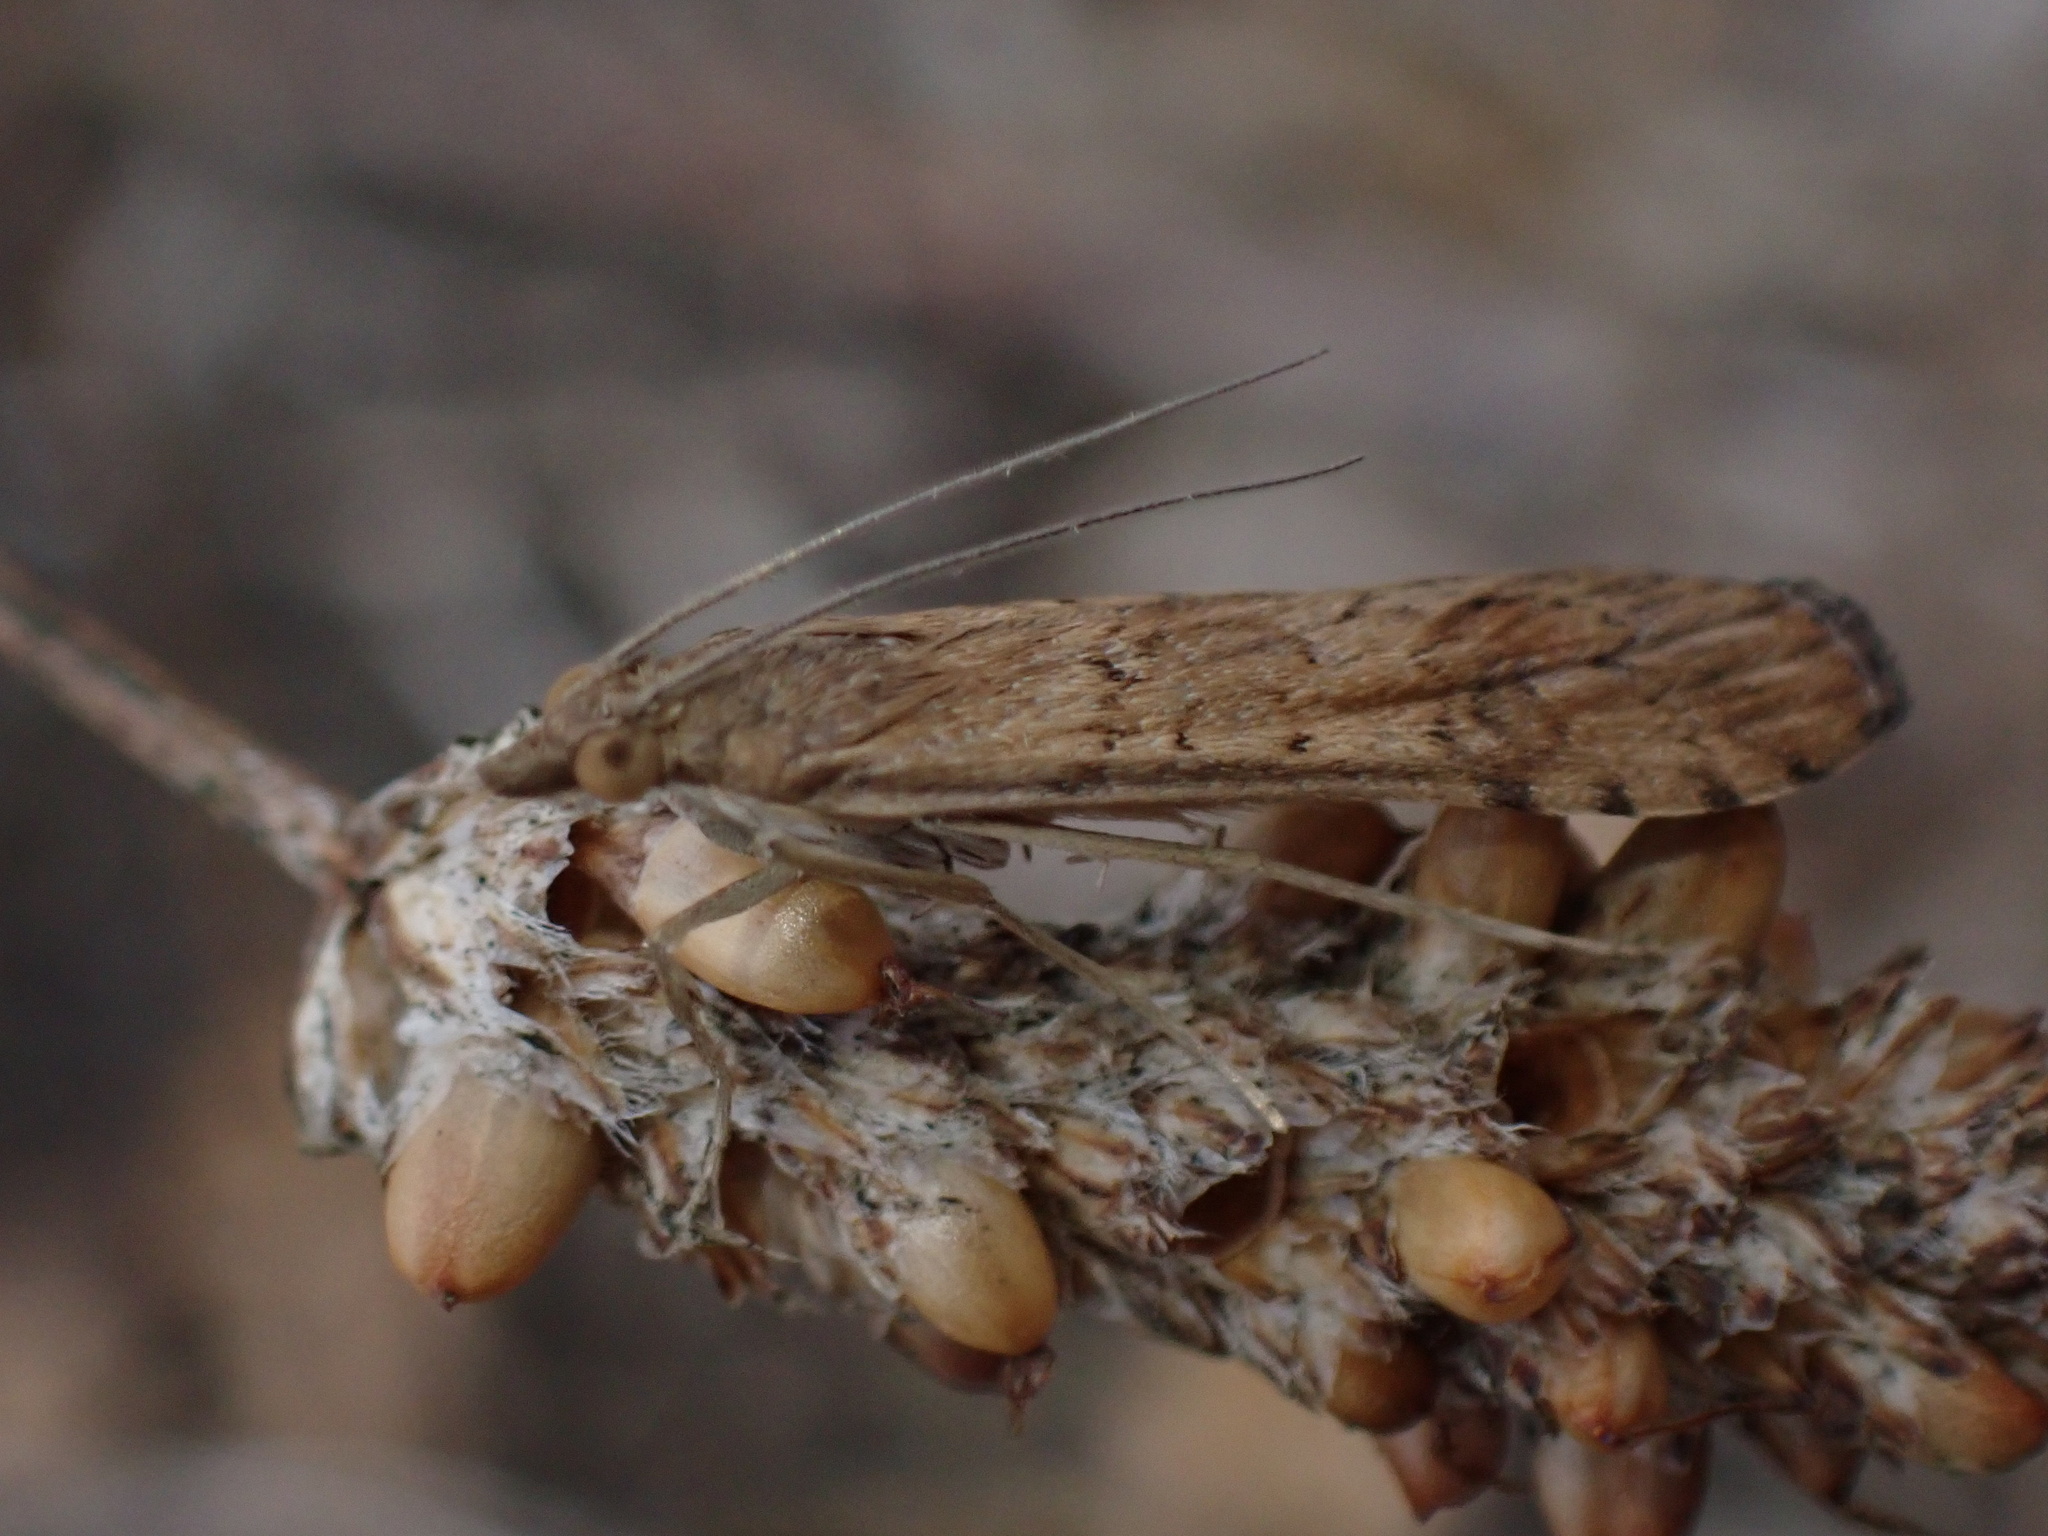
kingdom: Animalia
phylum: Arthropoda
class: Insecta
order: Lepidoptera
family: Crambidae
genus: Nomophila
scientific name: Nomophila noctuella
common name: Rush veneer
